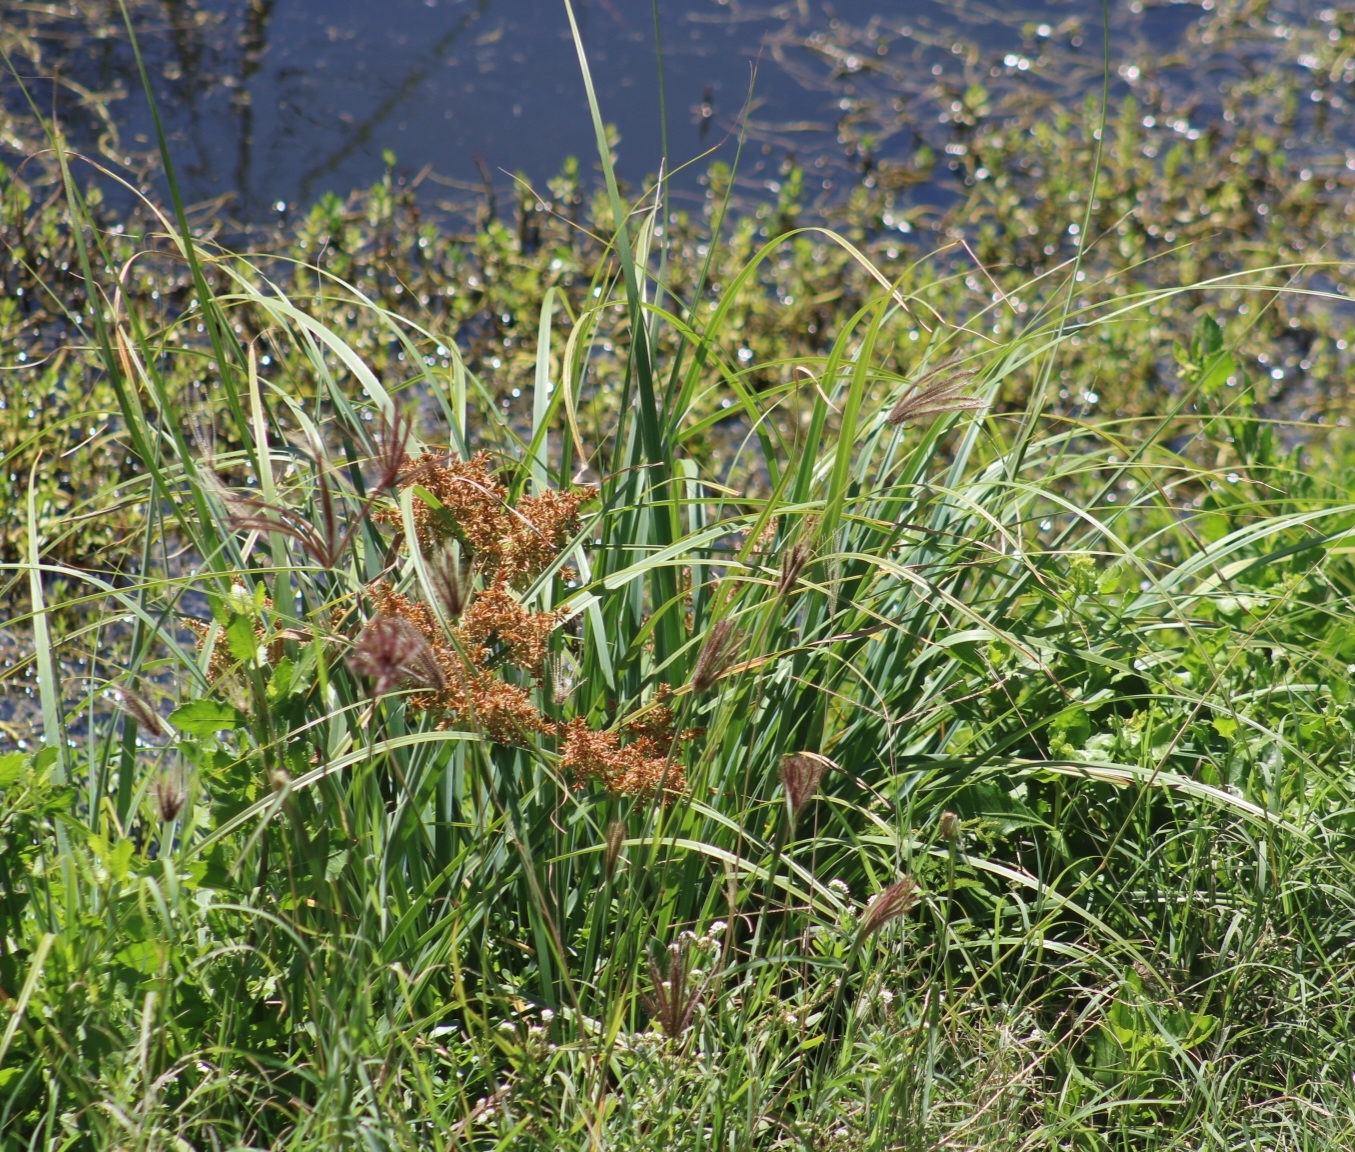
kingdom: Plantae
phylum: Tracheophyta
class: Liliopsida
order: Poales
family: Cyperaceae
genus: Cyperus
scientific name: Cyperus javanicus
